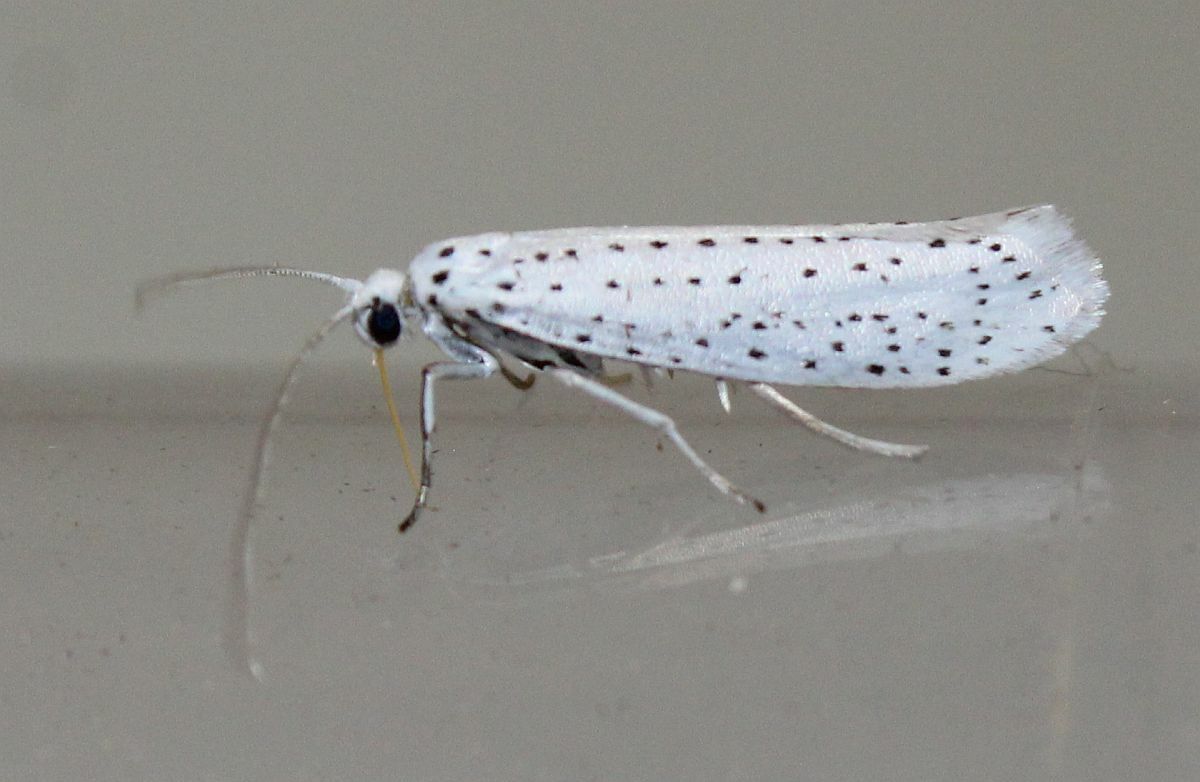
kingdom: Animalia
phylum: Arthropoda
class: Insecta
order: Lepidoptera
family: Yponomeutidae
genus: Yponomeuta
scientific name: Yponomeuta evonymella
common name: Bird-cherry ermine
